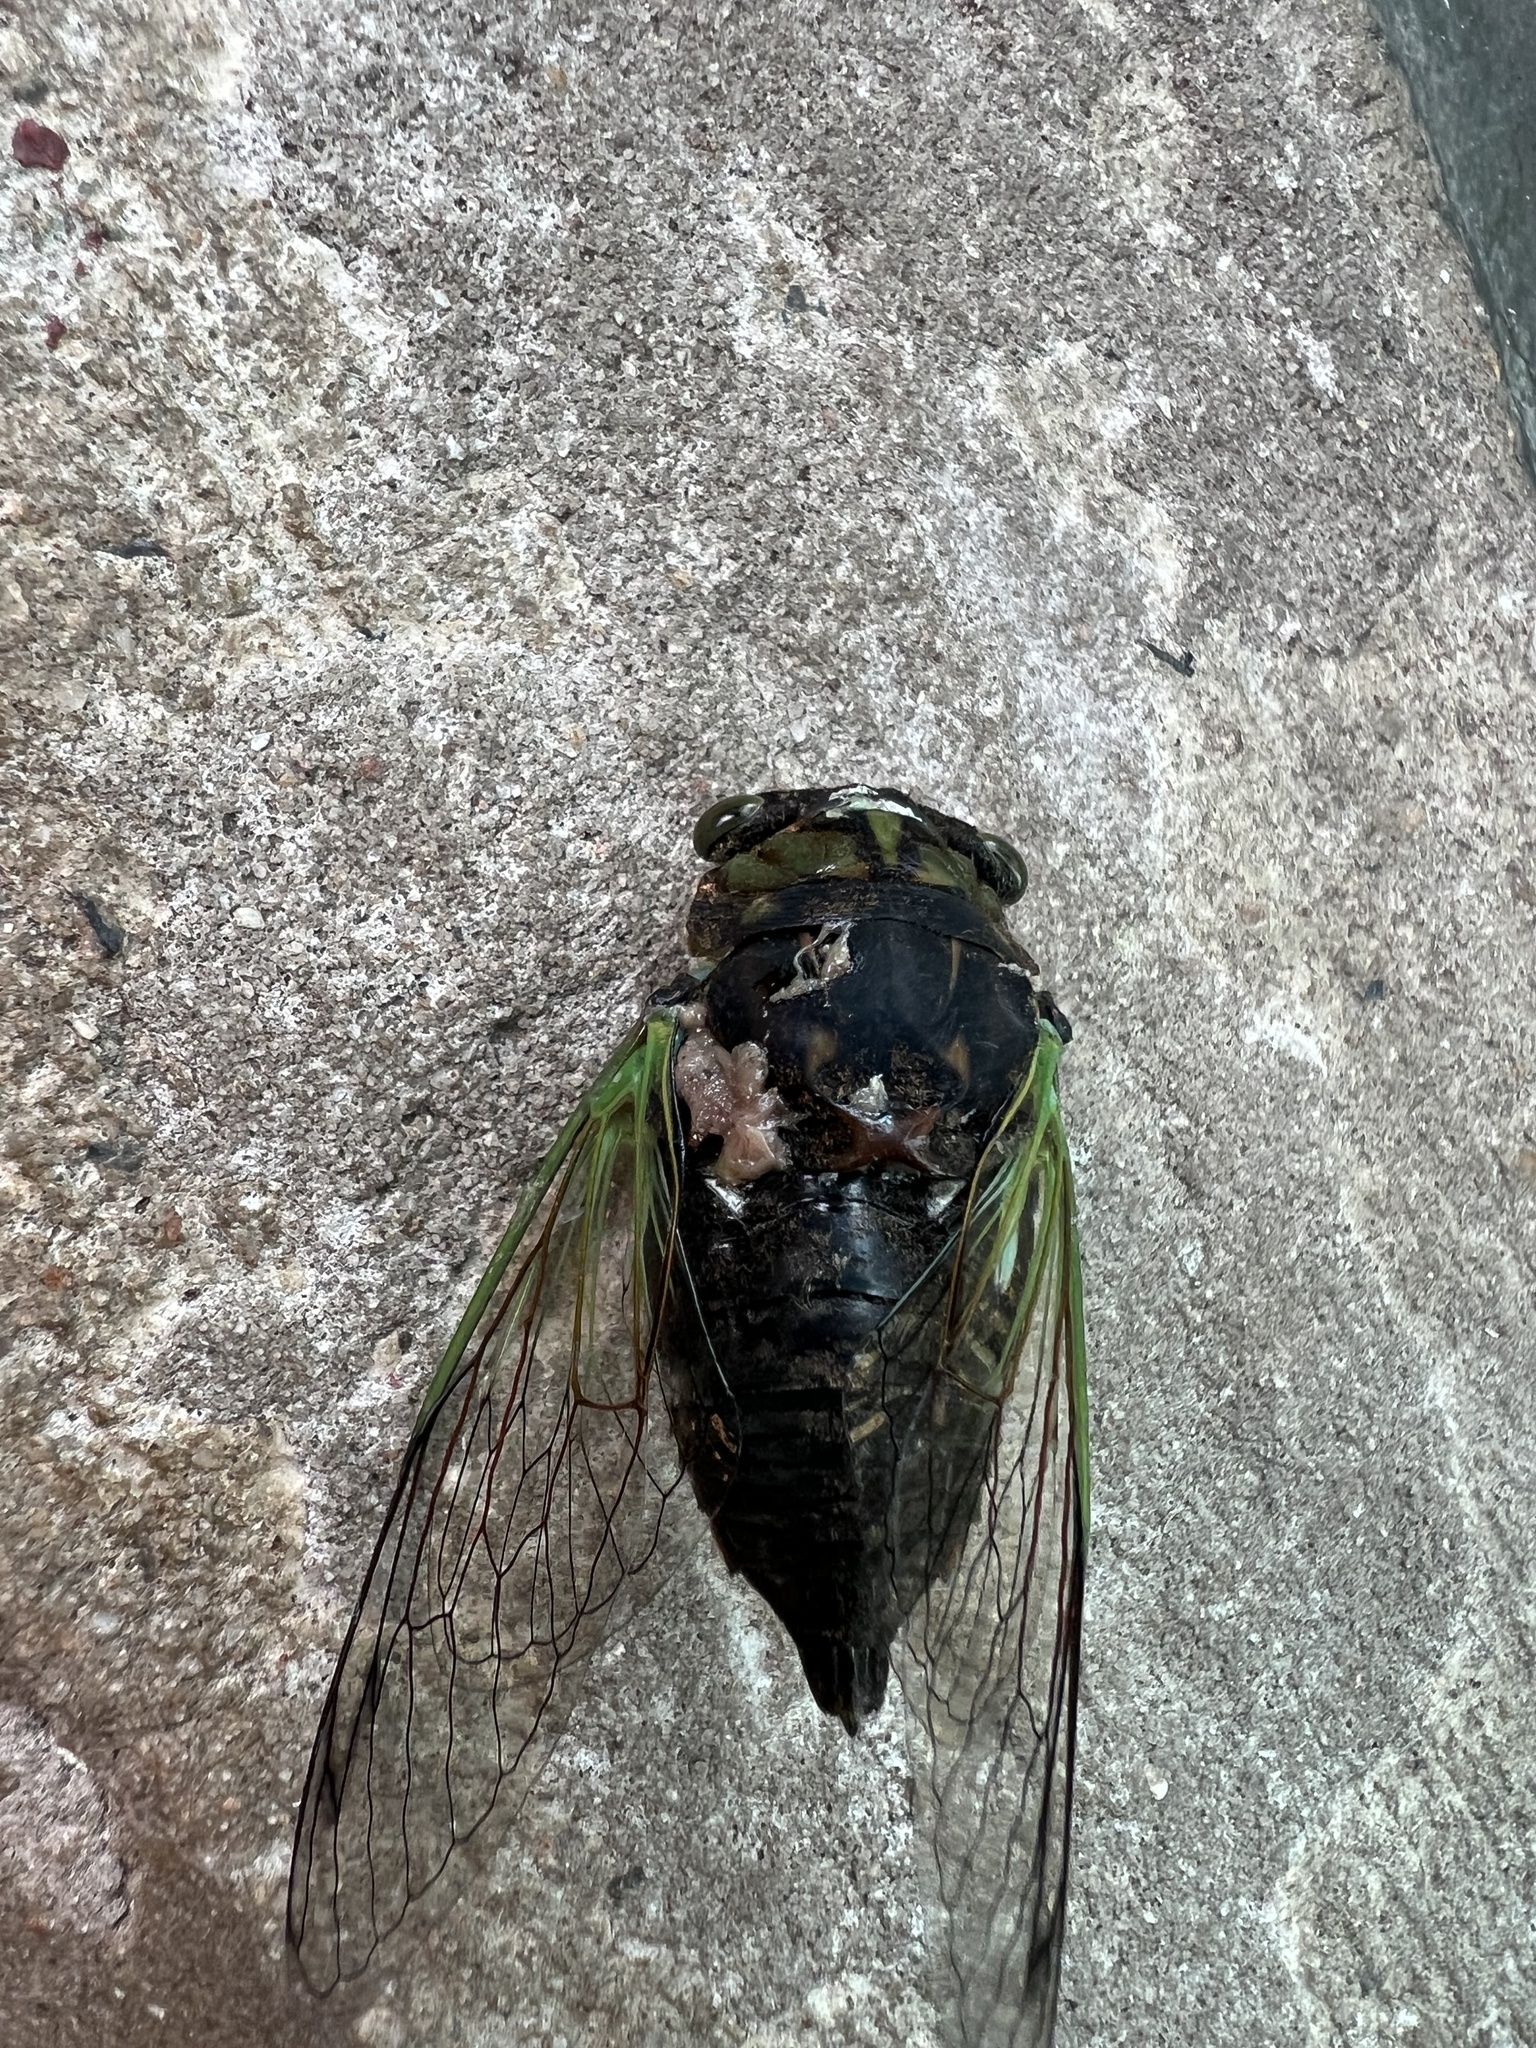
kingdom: Animalia
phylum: Arthropoda
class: Insecta
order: Hemiptera
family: Cicadidae
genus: Neotibicen
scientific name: Neotibicen tibicen
